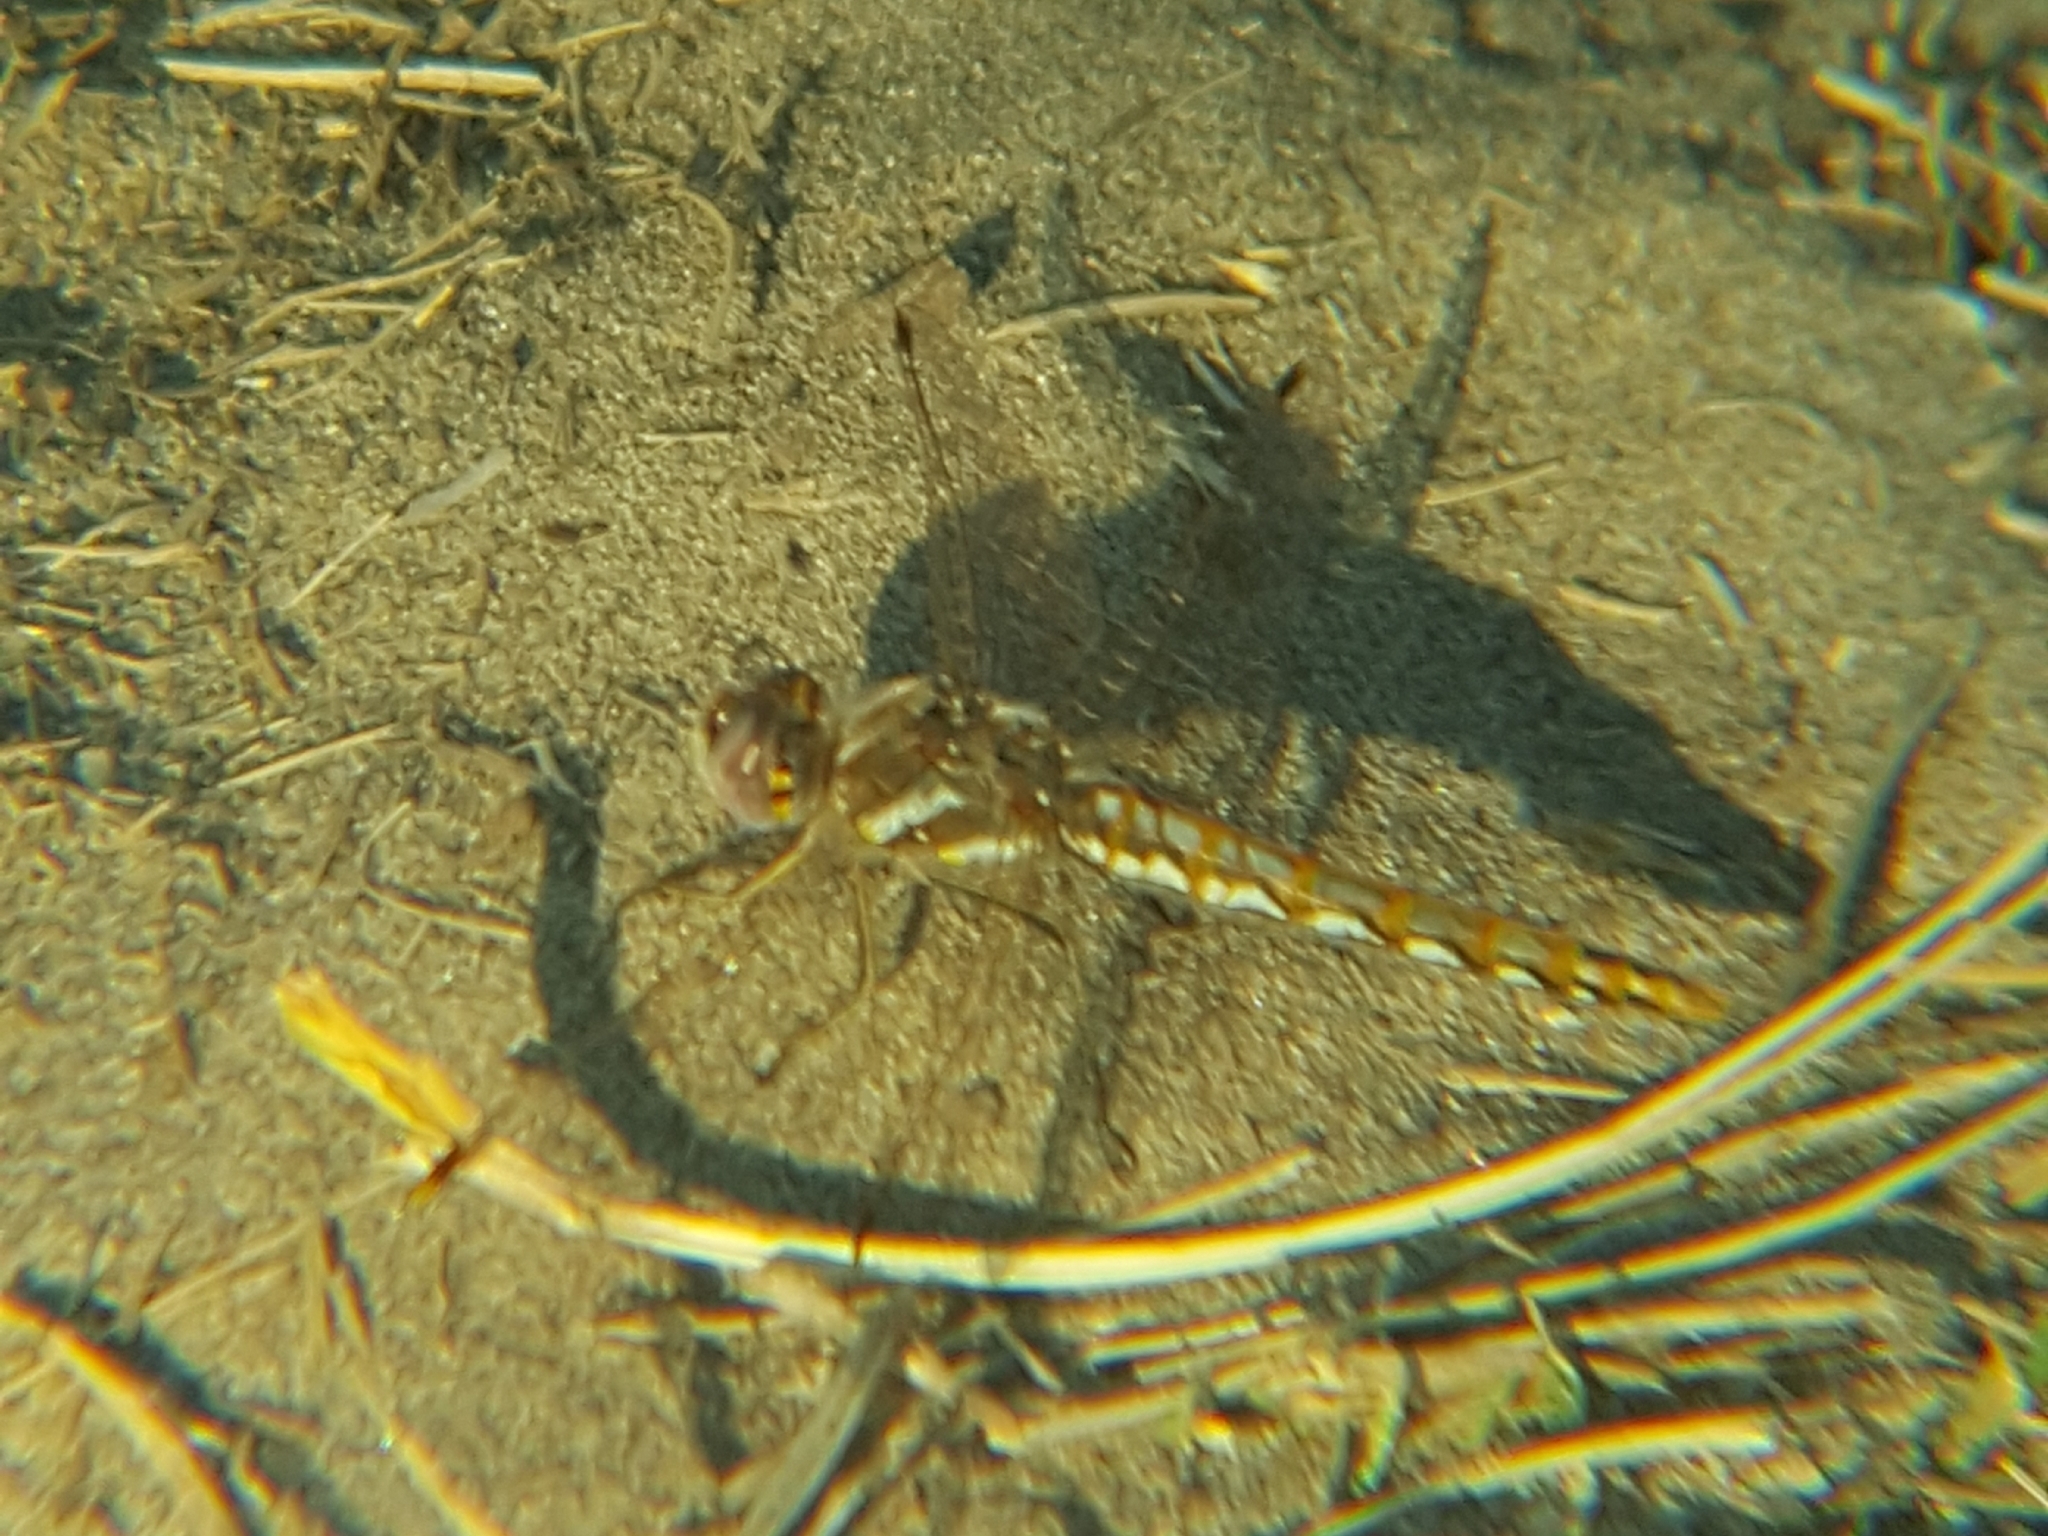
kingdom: Animalia
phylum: Arthropoda
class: Insecta
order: Odonata
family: Libellulidae
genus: Sympetrum
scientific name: Sympetrum corruptum
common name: Variegated meadowhawk
